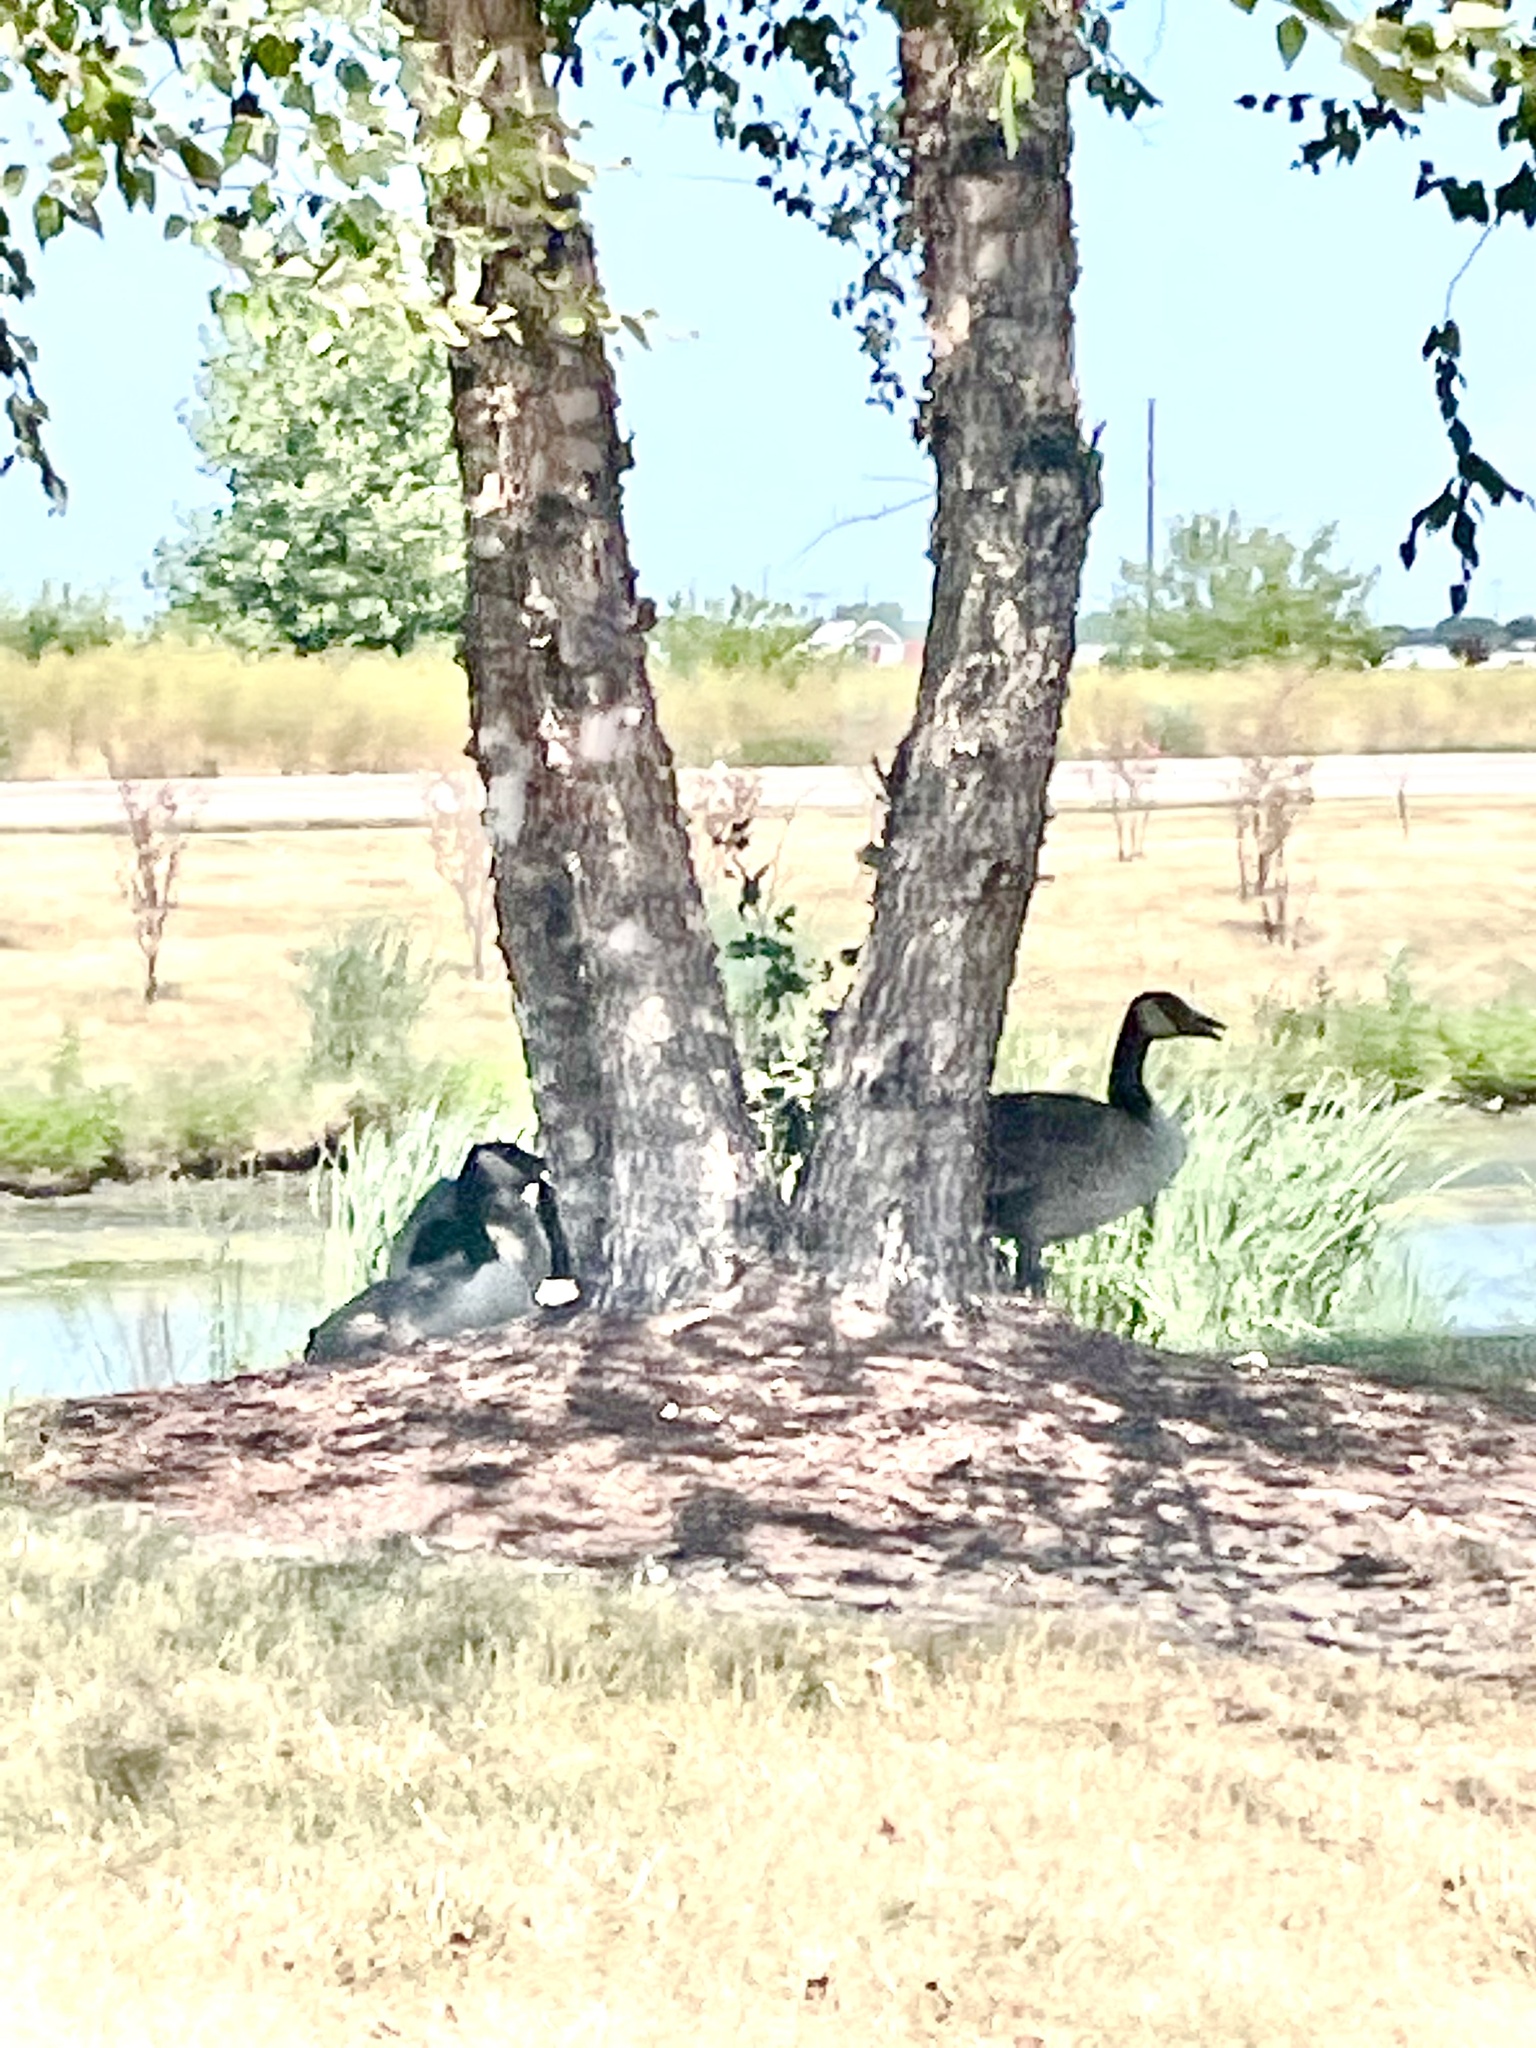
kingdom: Animalia
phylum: Chordata
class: Aves
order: Anseriformes
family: Anatidae
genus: Branta
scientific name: Branta canadensis
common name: Canada goose
